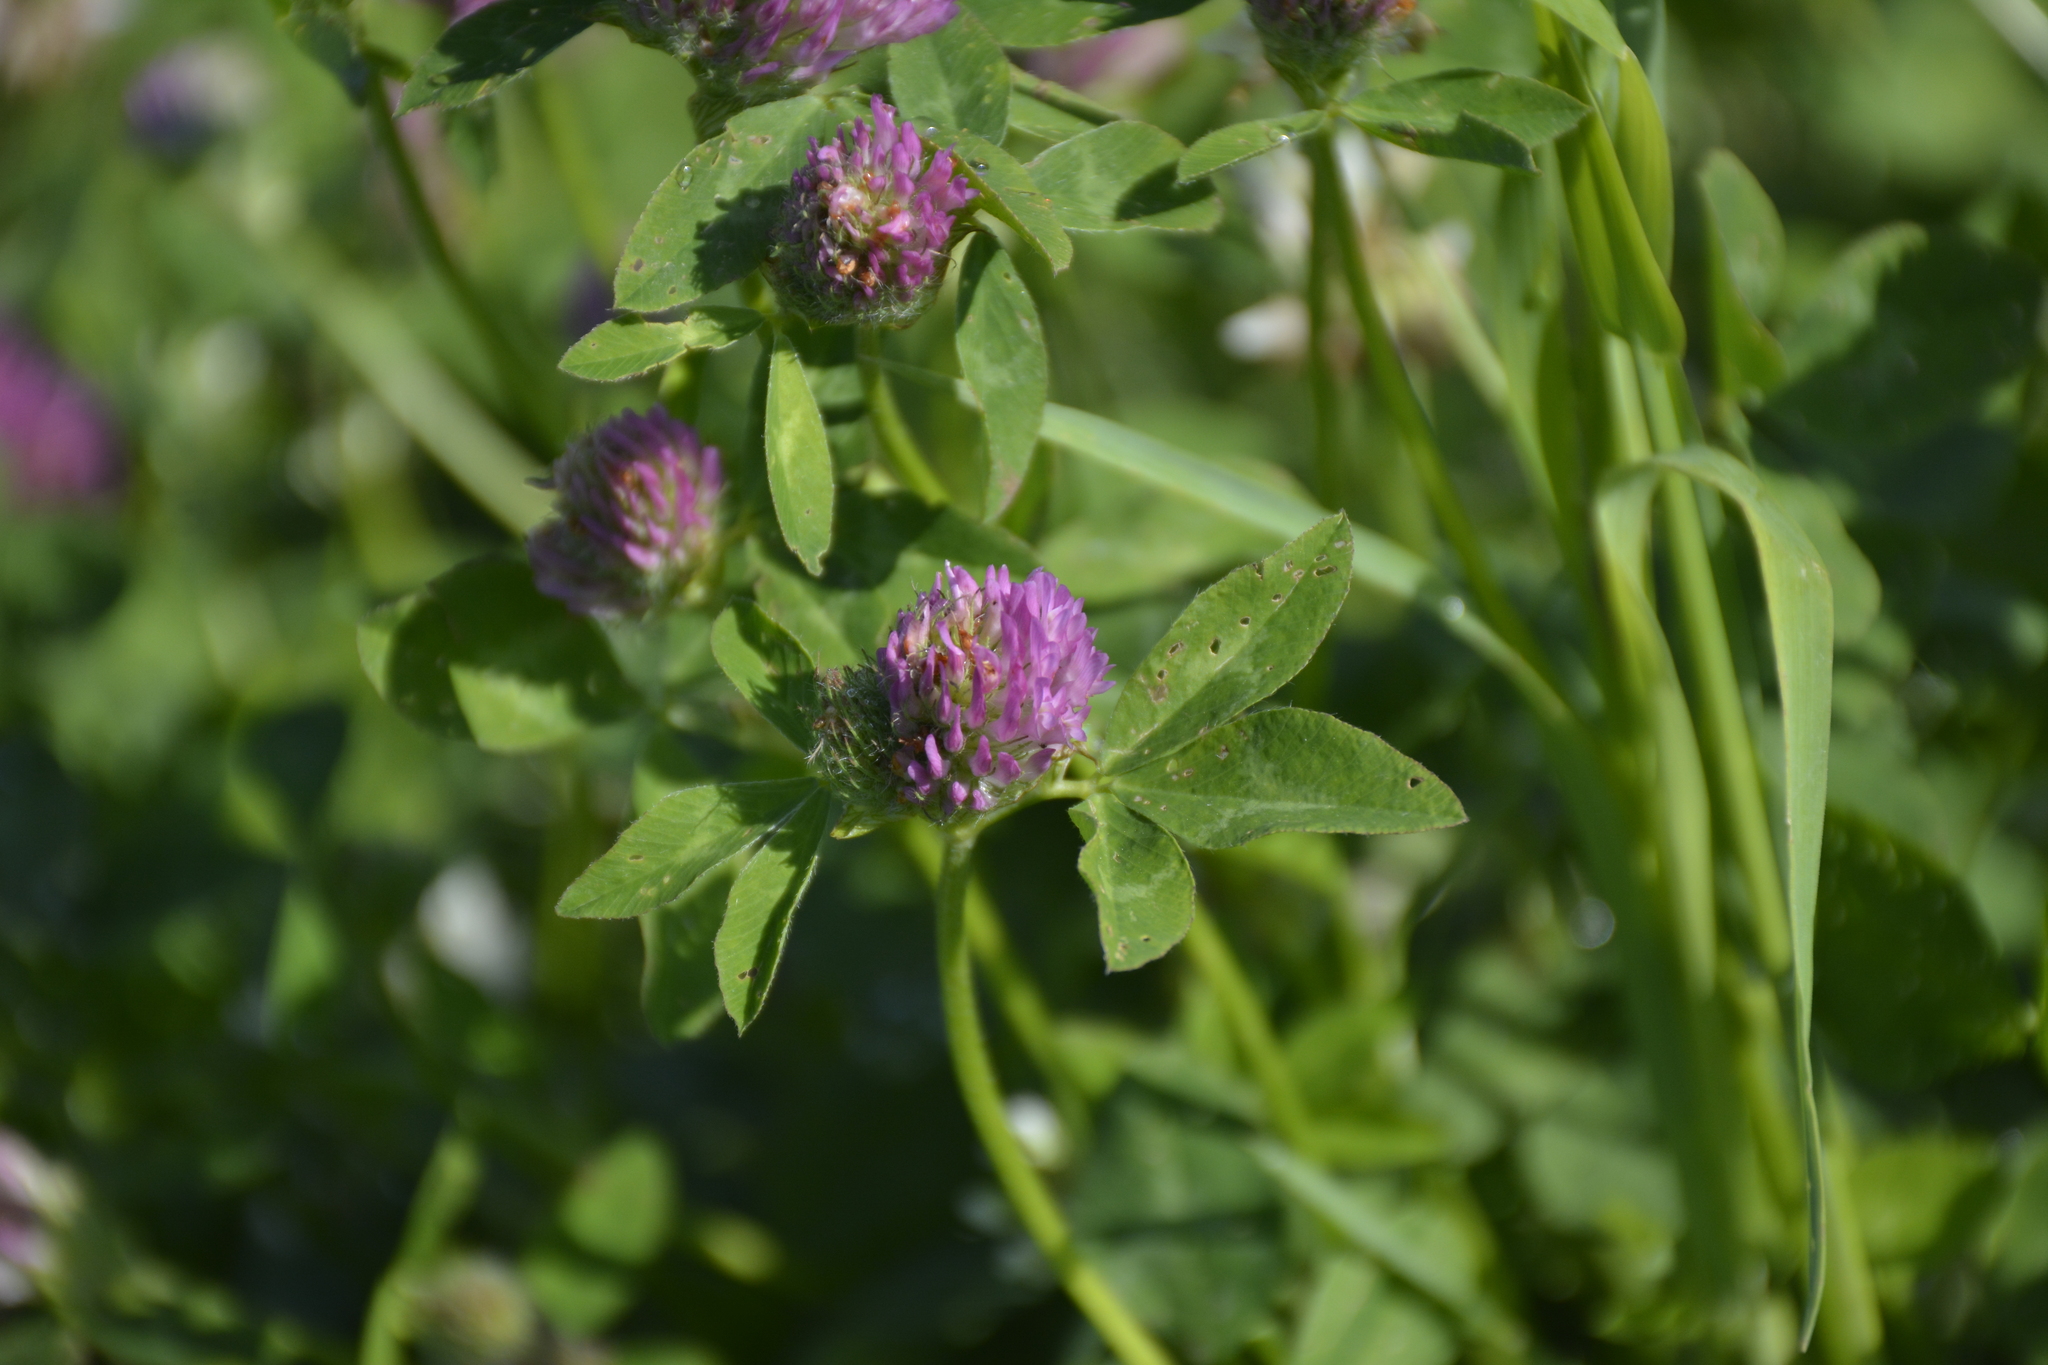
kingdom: Plantae
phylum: Tracheophyta
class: Magnoliopsida
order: Fabales
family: Fabaceae
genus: Trifolium
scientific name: Trifolium pratense
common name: Red clover
